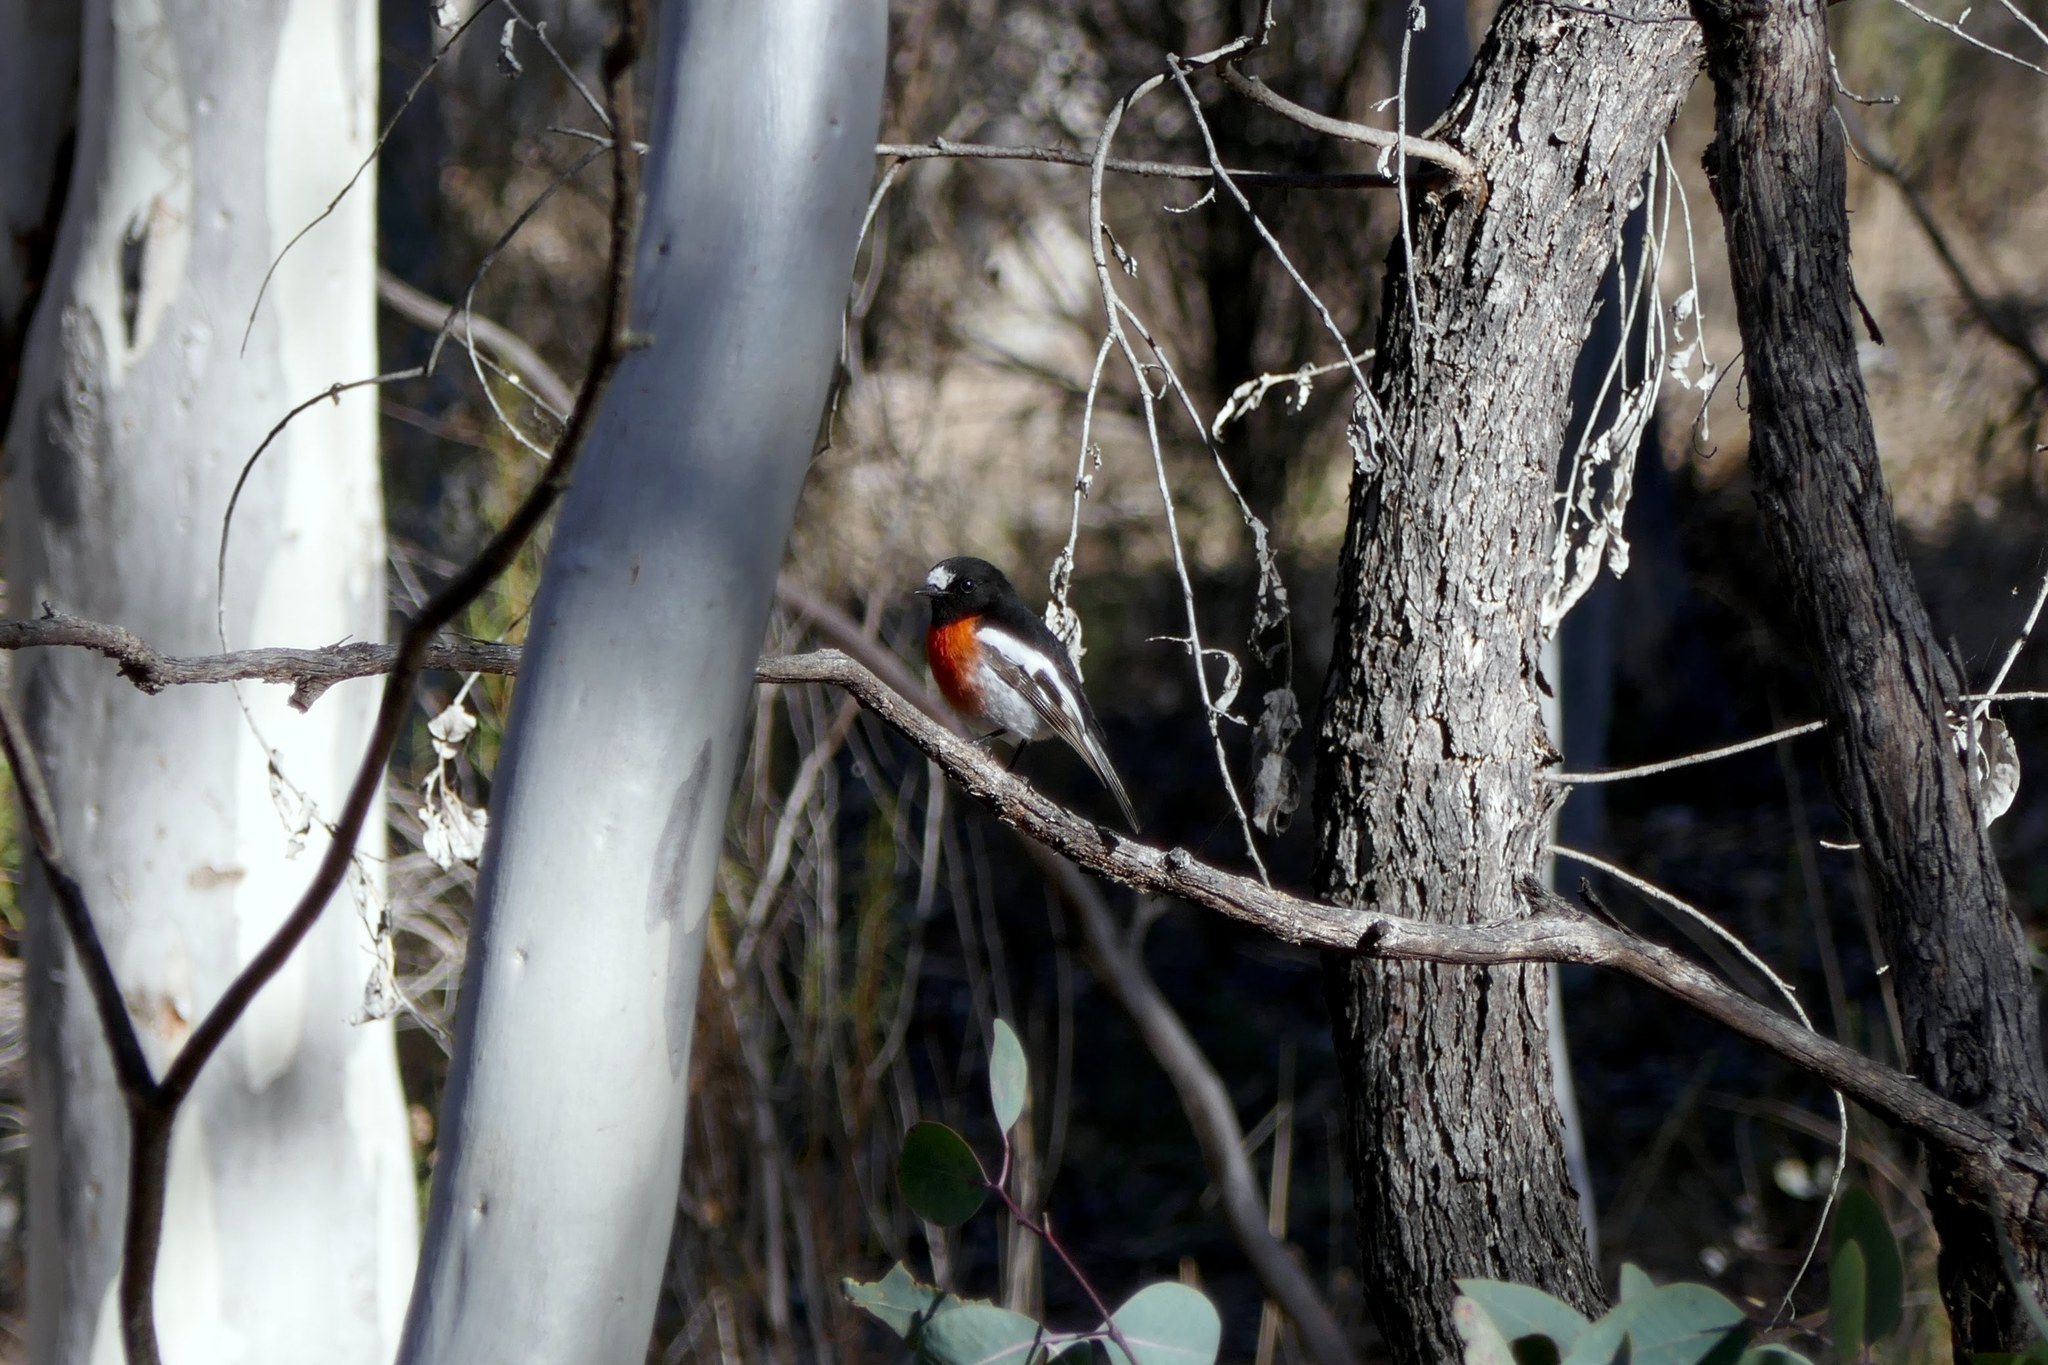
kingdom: Animalia
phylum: Chordata
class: Aves
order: Passeriformes
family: Petroicidae
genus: Petroica
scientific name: Petroica boodang
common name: Scarlet robin
